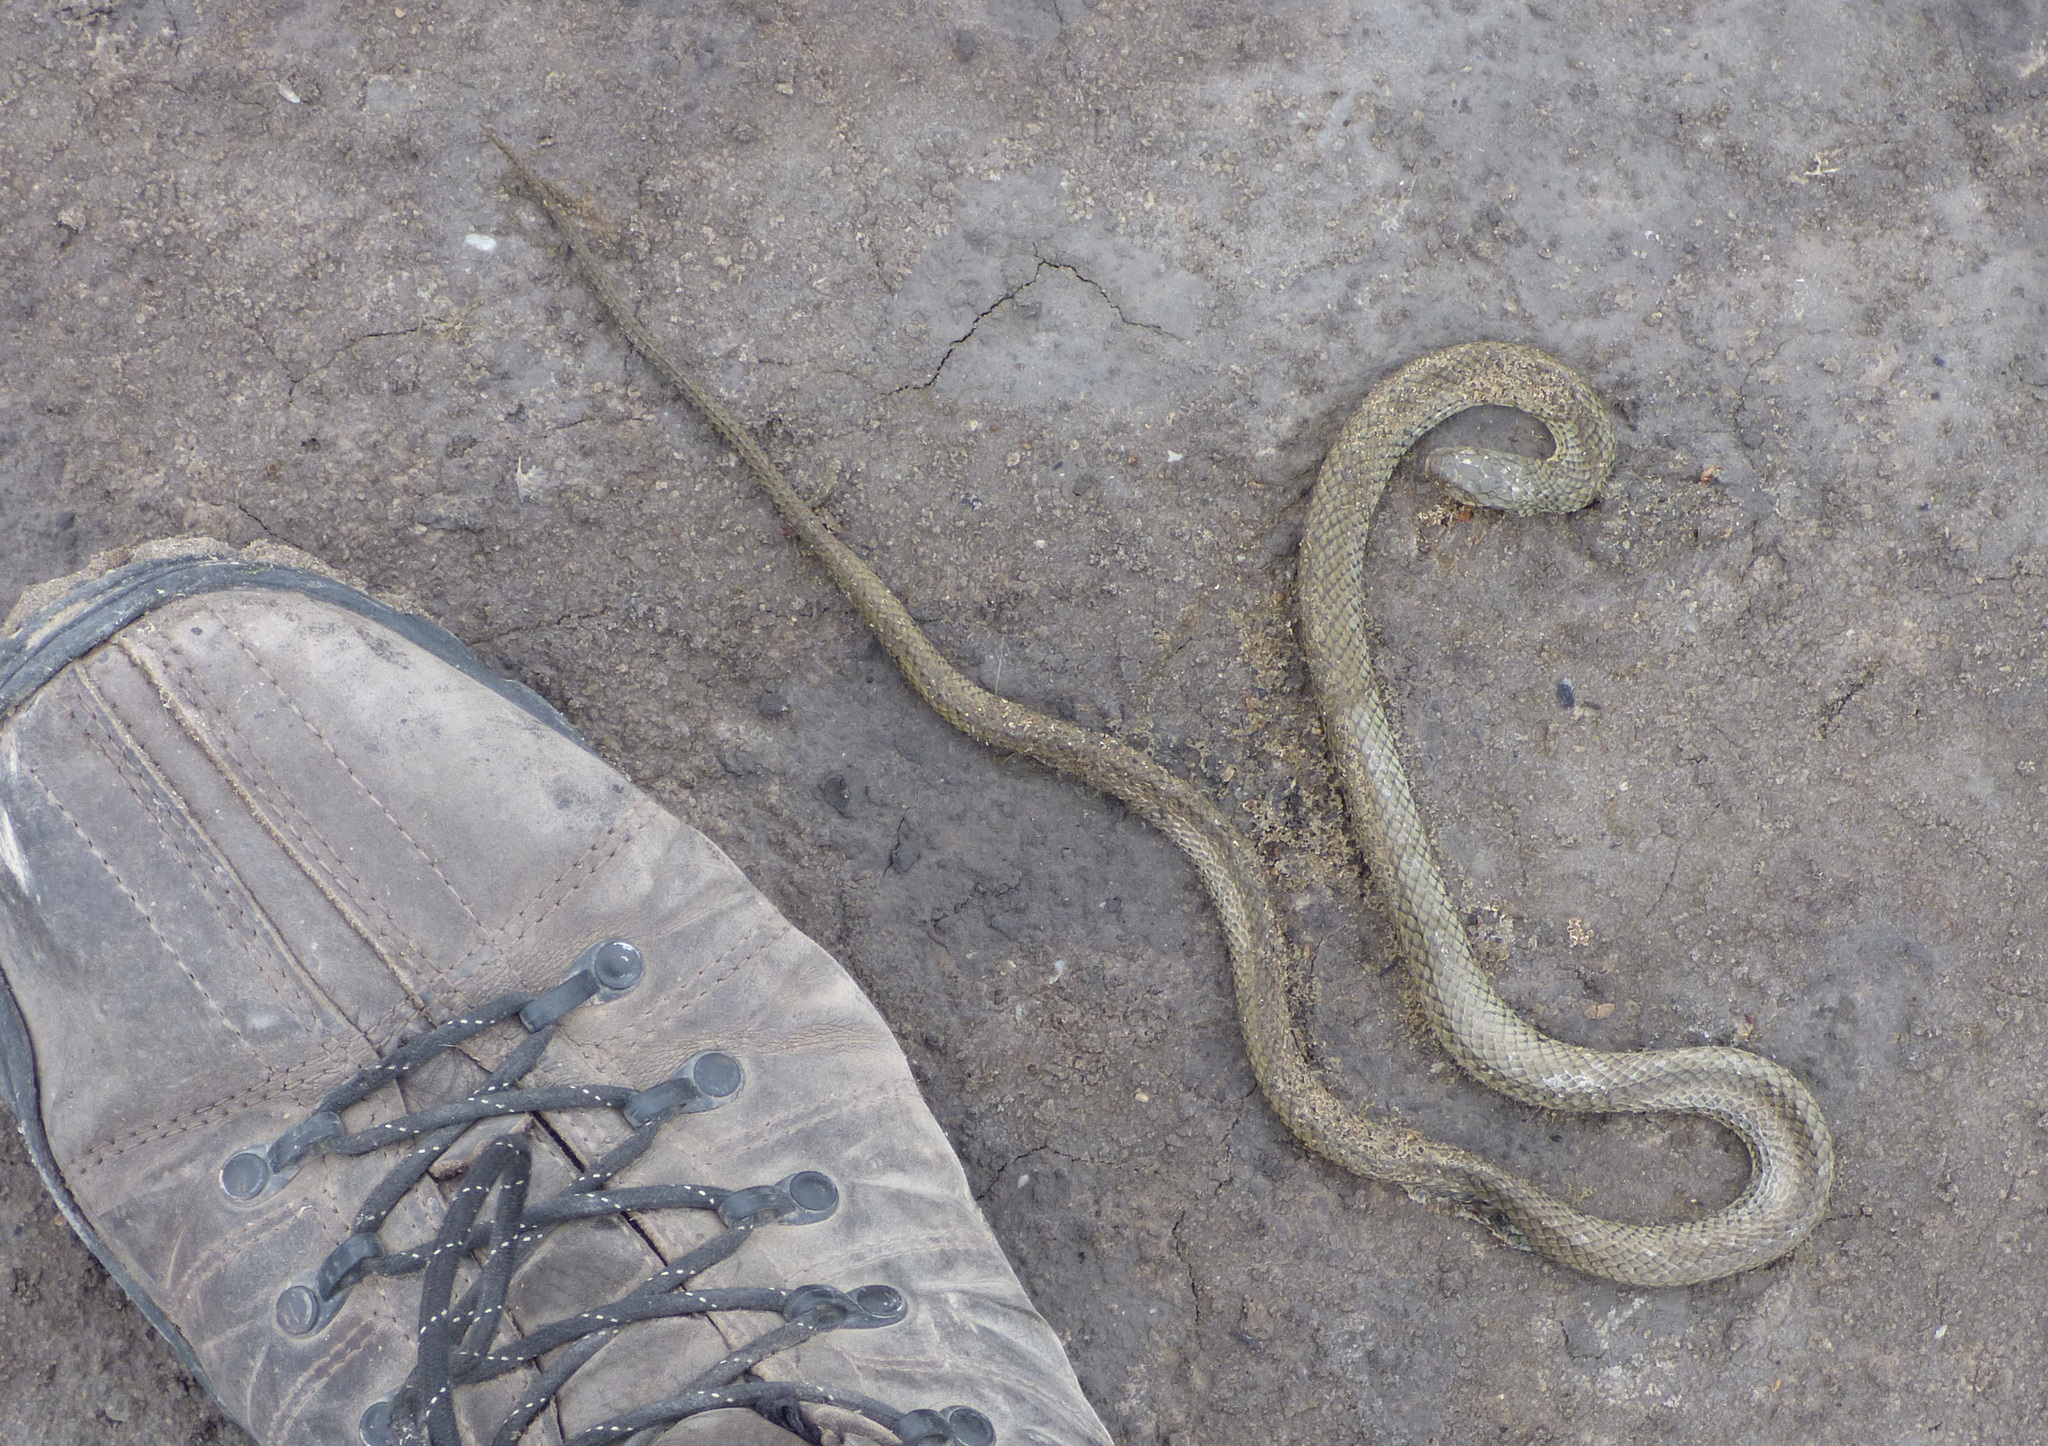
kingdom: Animalia
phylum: Chordata
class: Squamata
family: Colubridae
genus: Philodryas
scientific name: Philodryas patagoniensis
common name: Patagonia green racer
